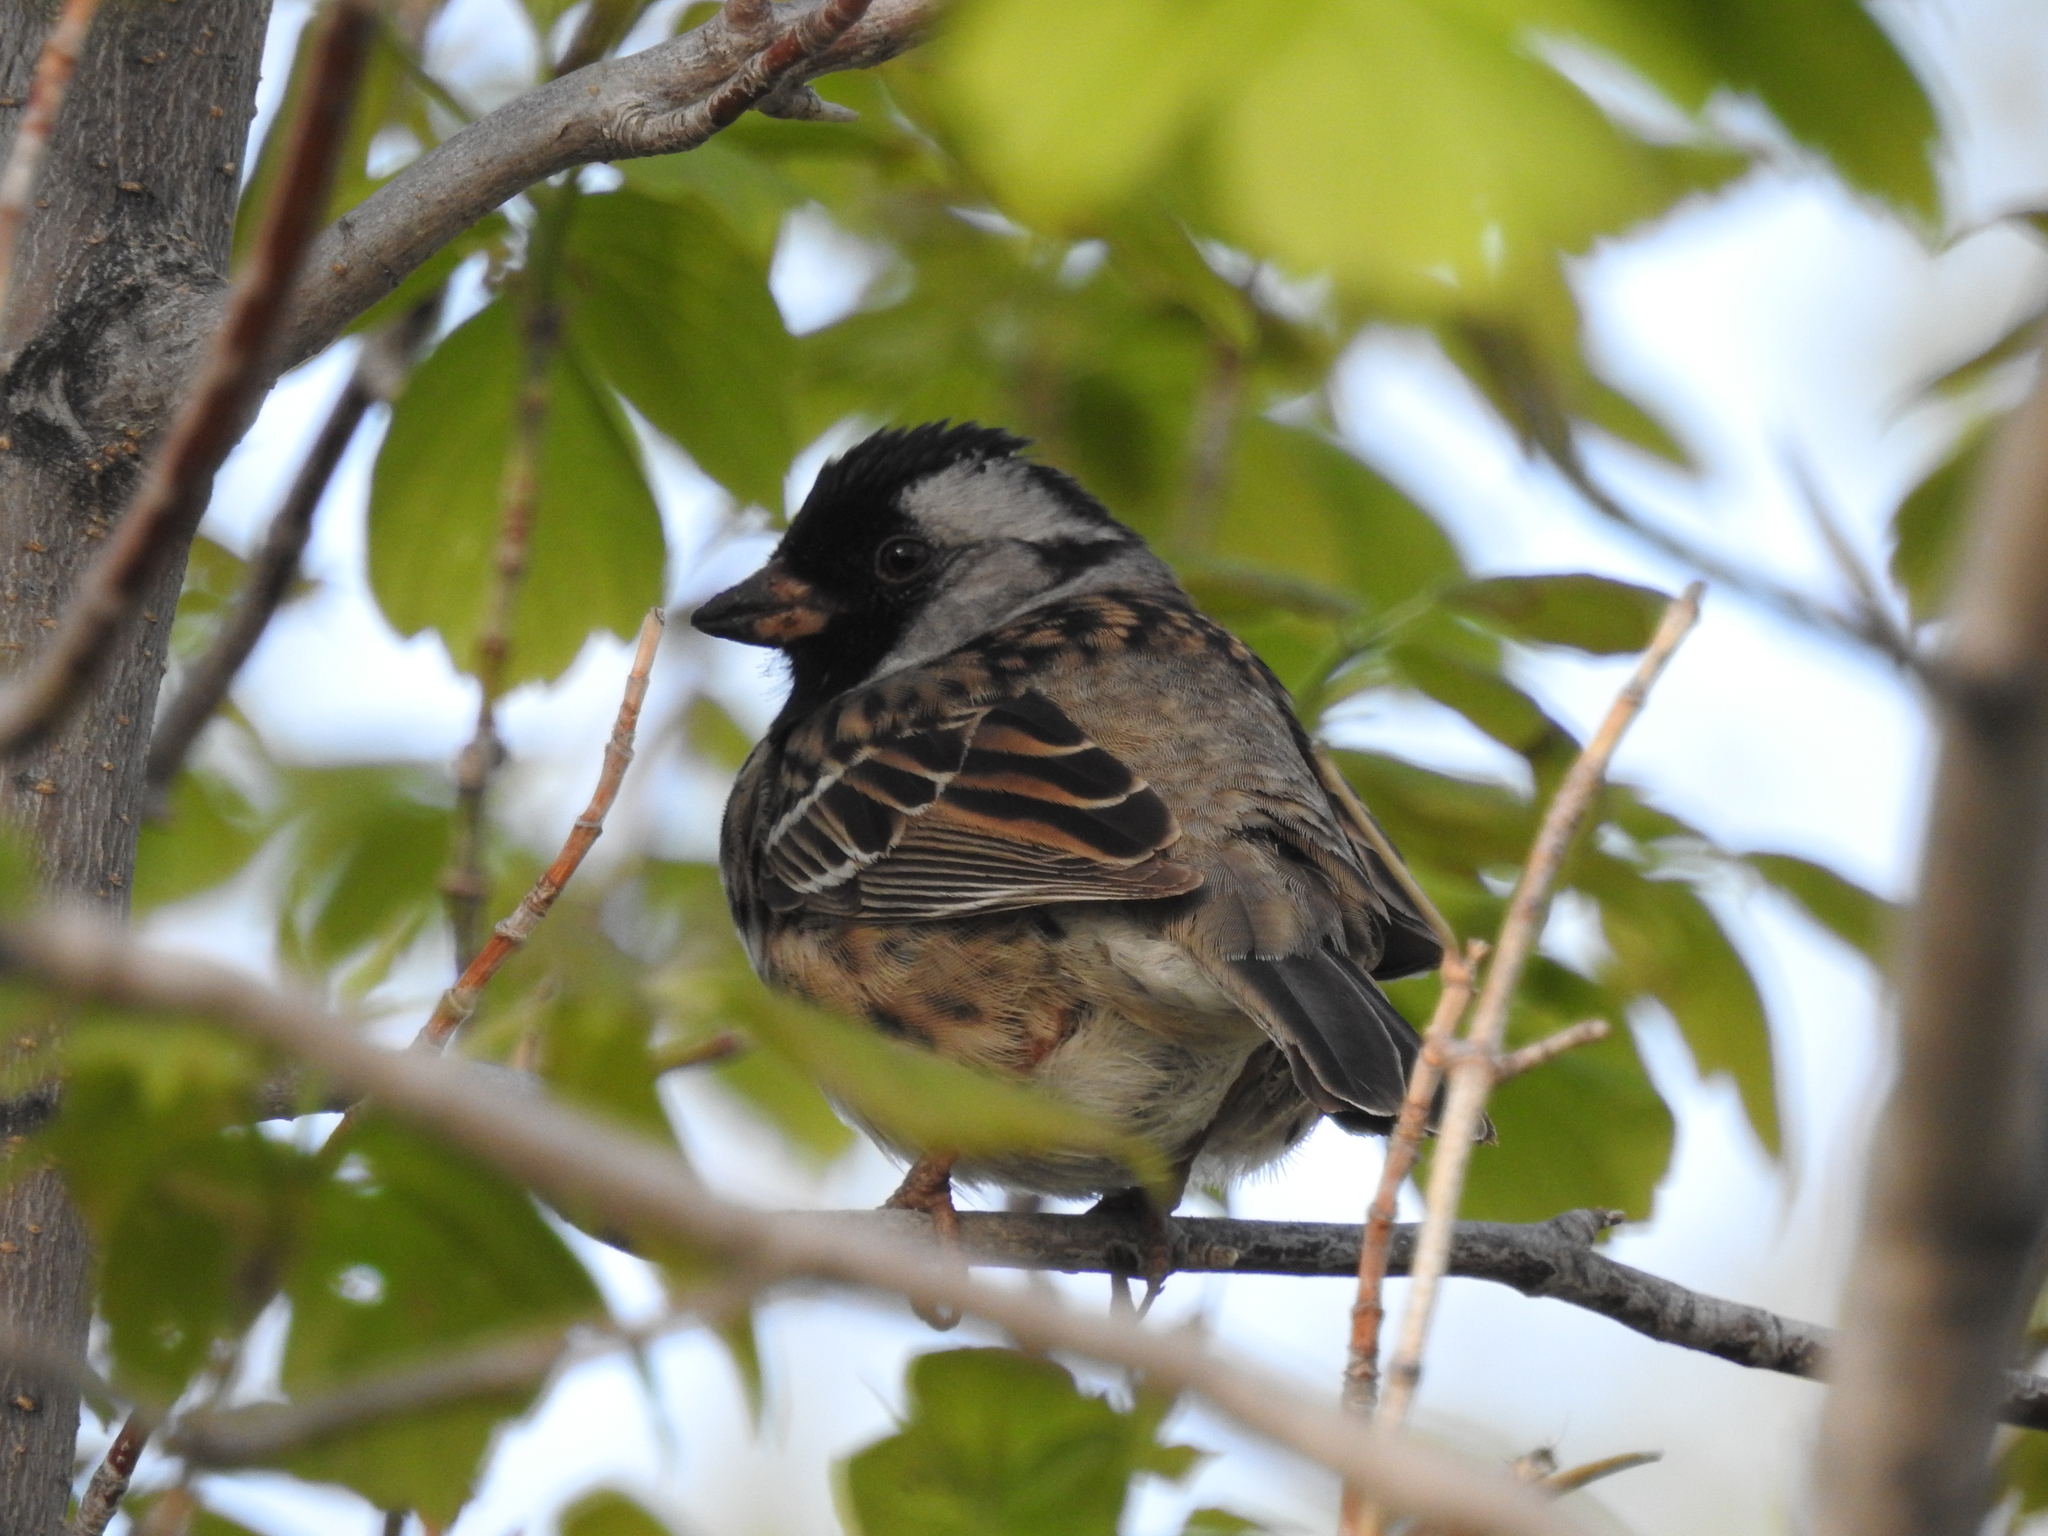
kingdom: Animalia
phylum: Chordata
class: Aves
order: Passeriformes
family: Passerellidae
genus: Zonotrichia
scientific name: Zonotrichia querula
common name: Harris's sparrow
